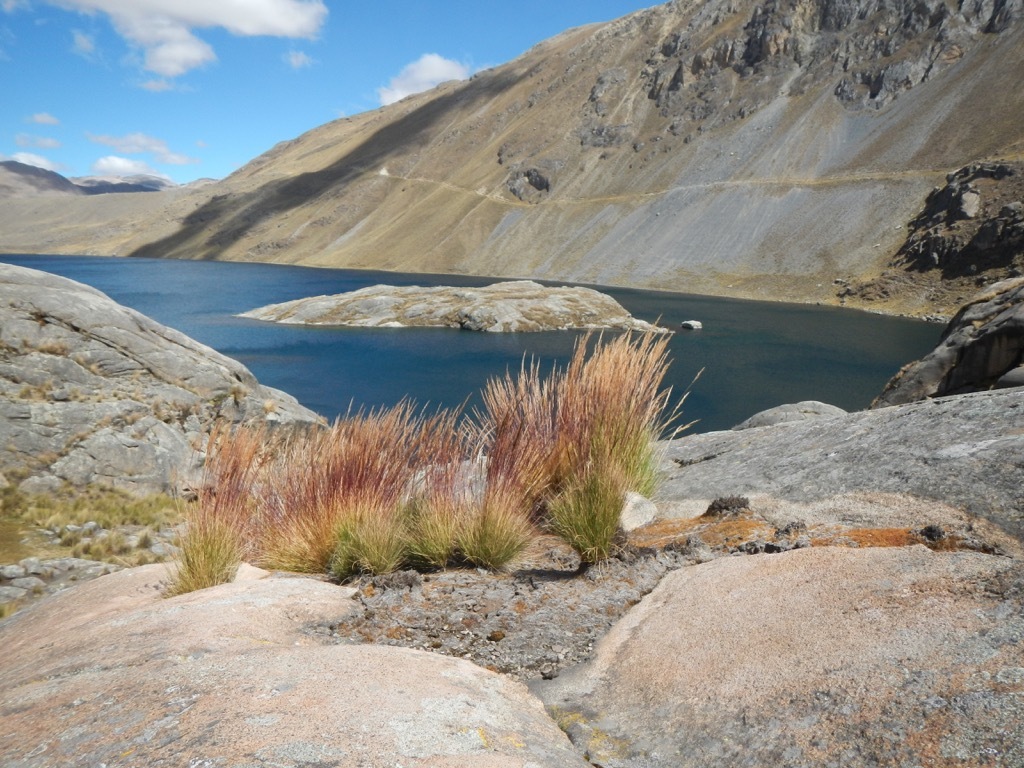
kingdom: Plantae
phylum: Tracheophyta
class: Liliopsida
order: Poales
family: Poaceae
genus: Jarava
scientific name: Jarava ichu
